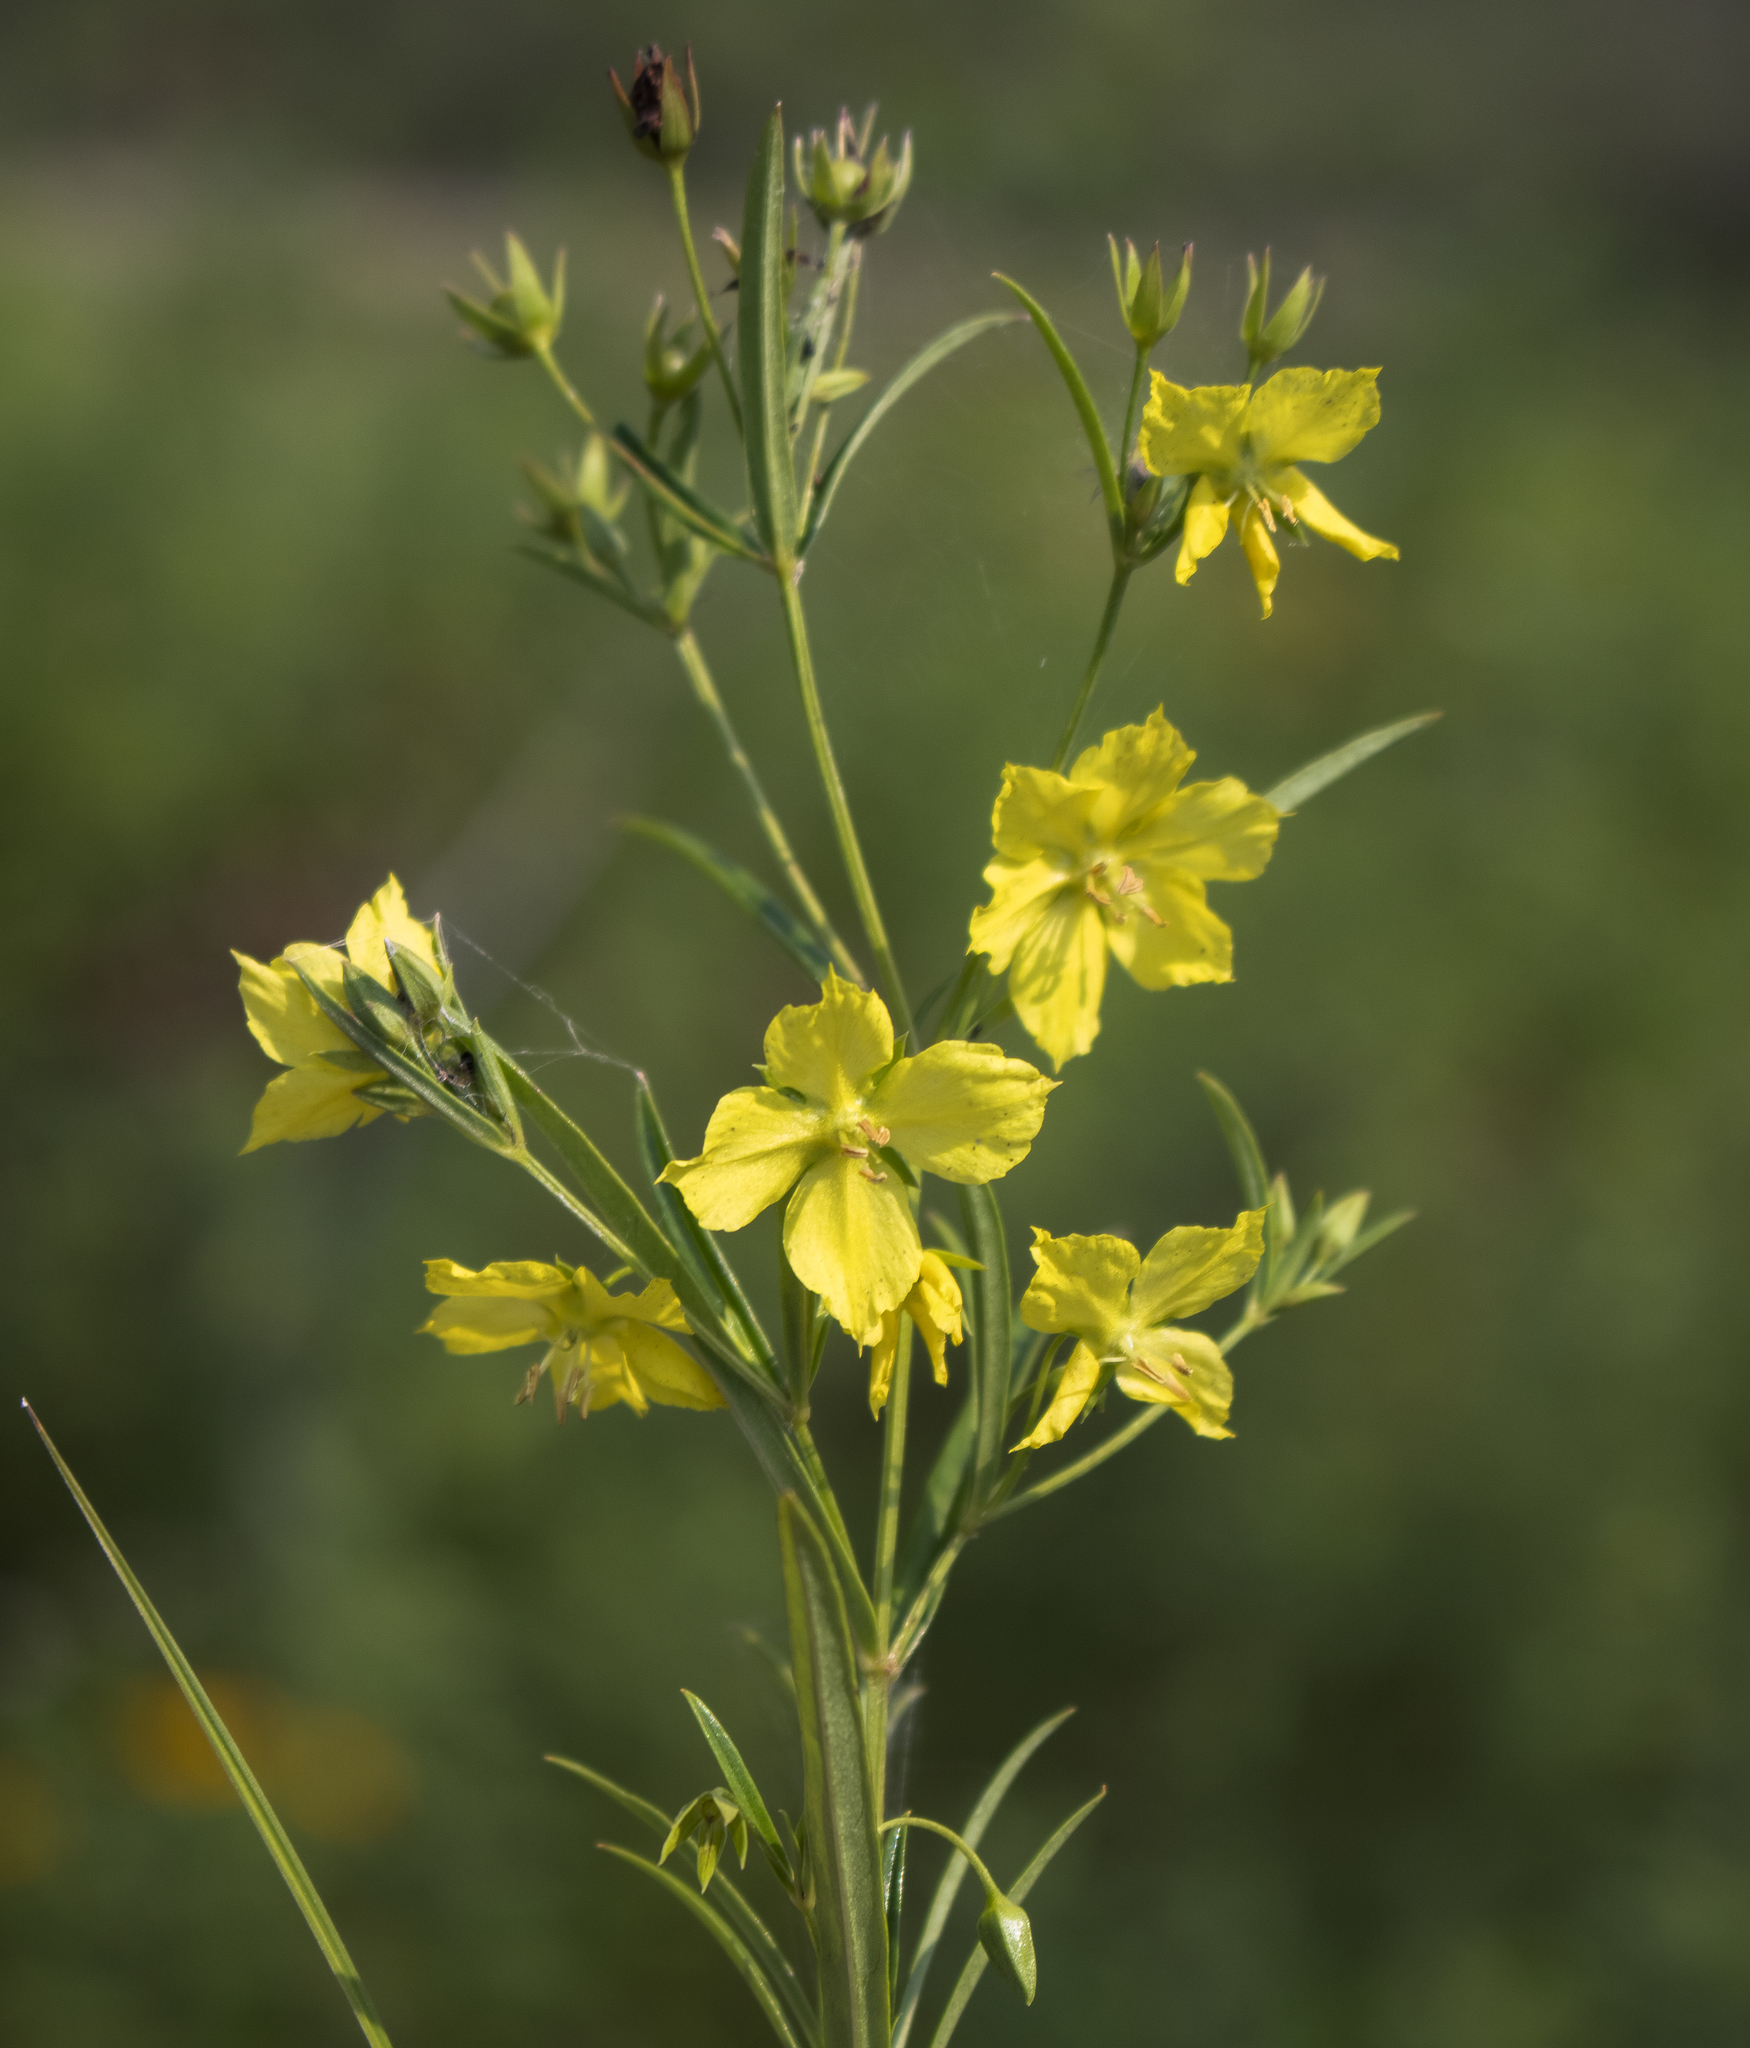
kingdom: Plantae
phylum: Tracheophyta
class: Magnoliopsida
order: Ericales
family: Primulaceae
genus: Lysimachia
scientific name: Lysimachia quadriflora
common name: Four-flowered loosestrife
